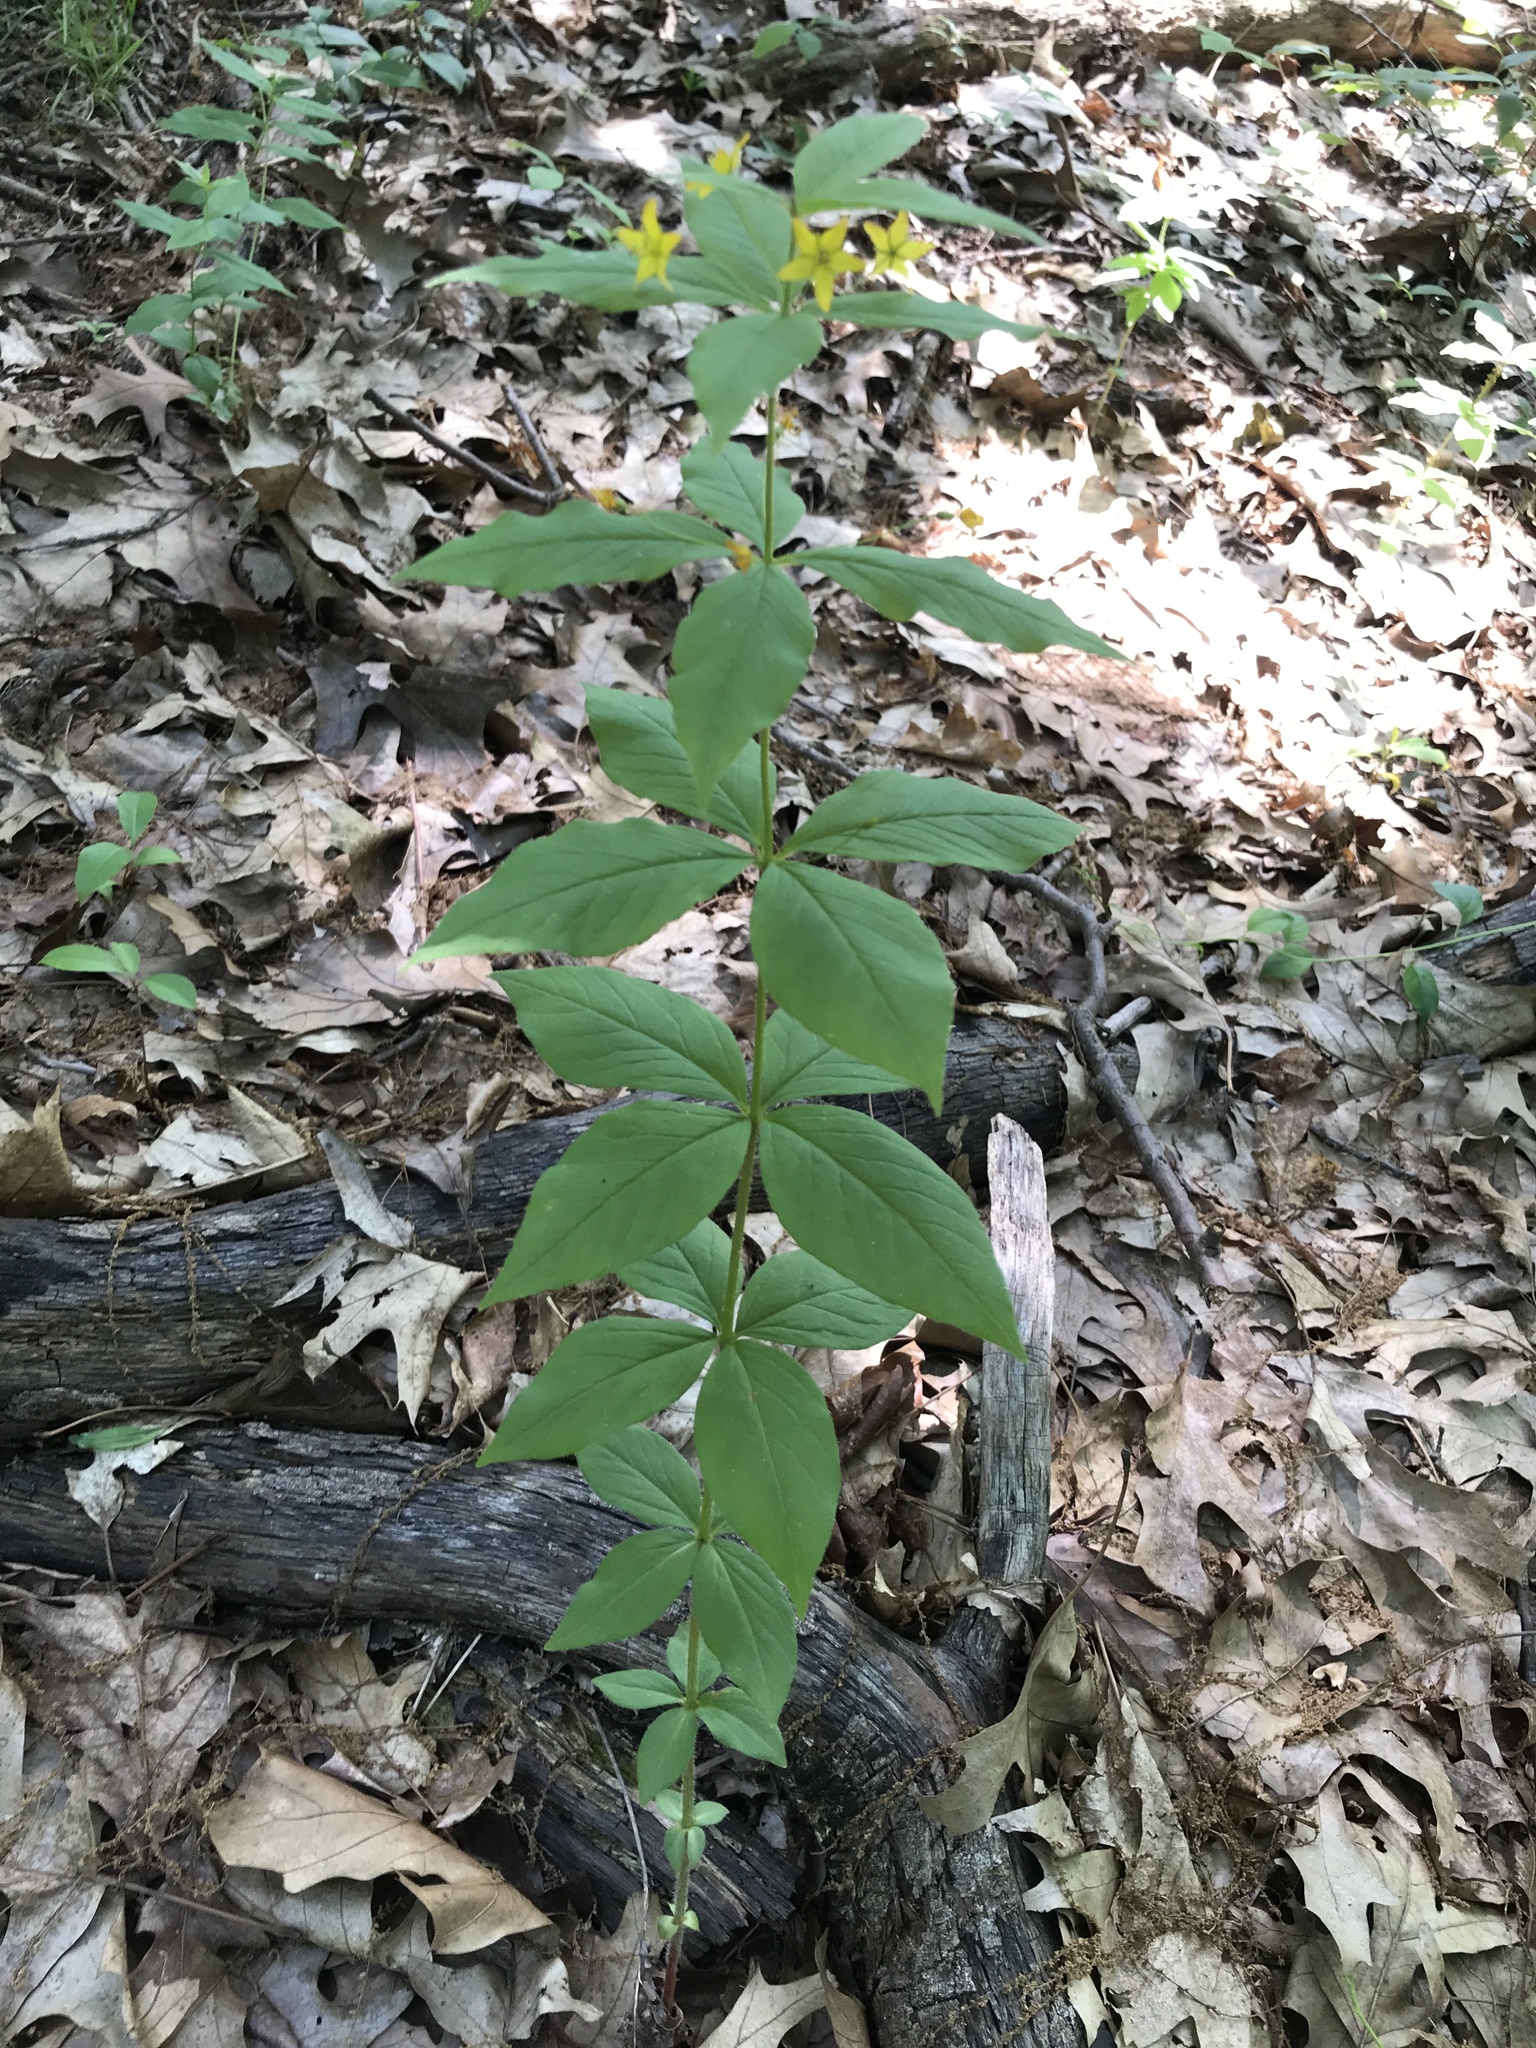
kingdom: Plantae
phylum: Tracheophyta
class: Magnoliopsida
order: Ericales
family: Primulaceae
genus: Lysimachia
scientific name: Lysimachia quadrifolia
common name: Whorled loosestrife
